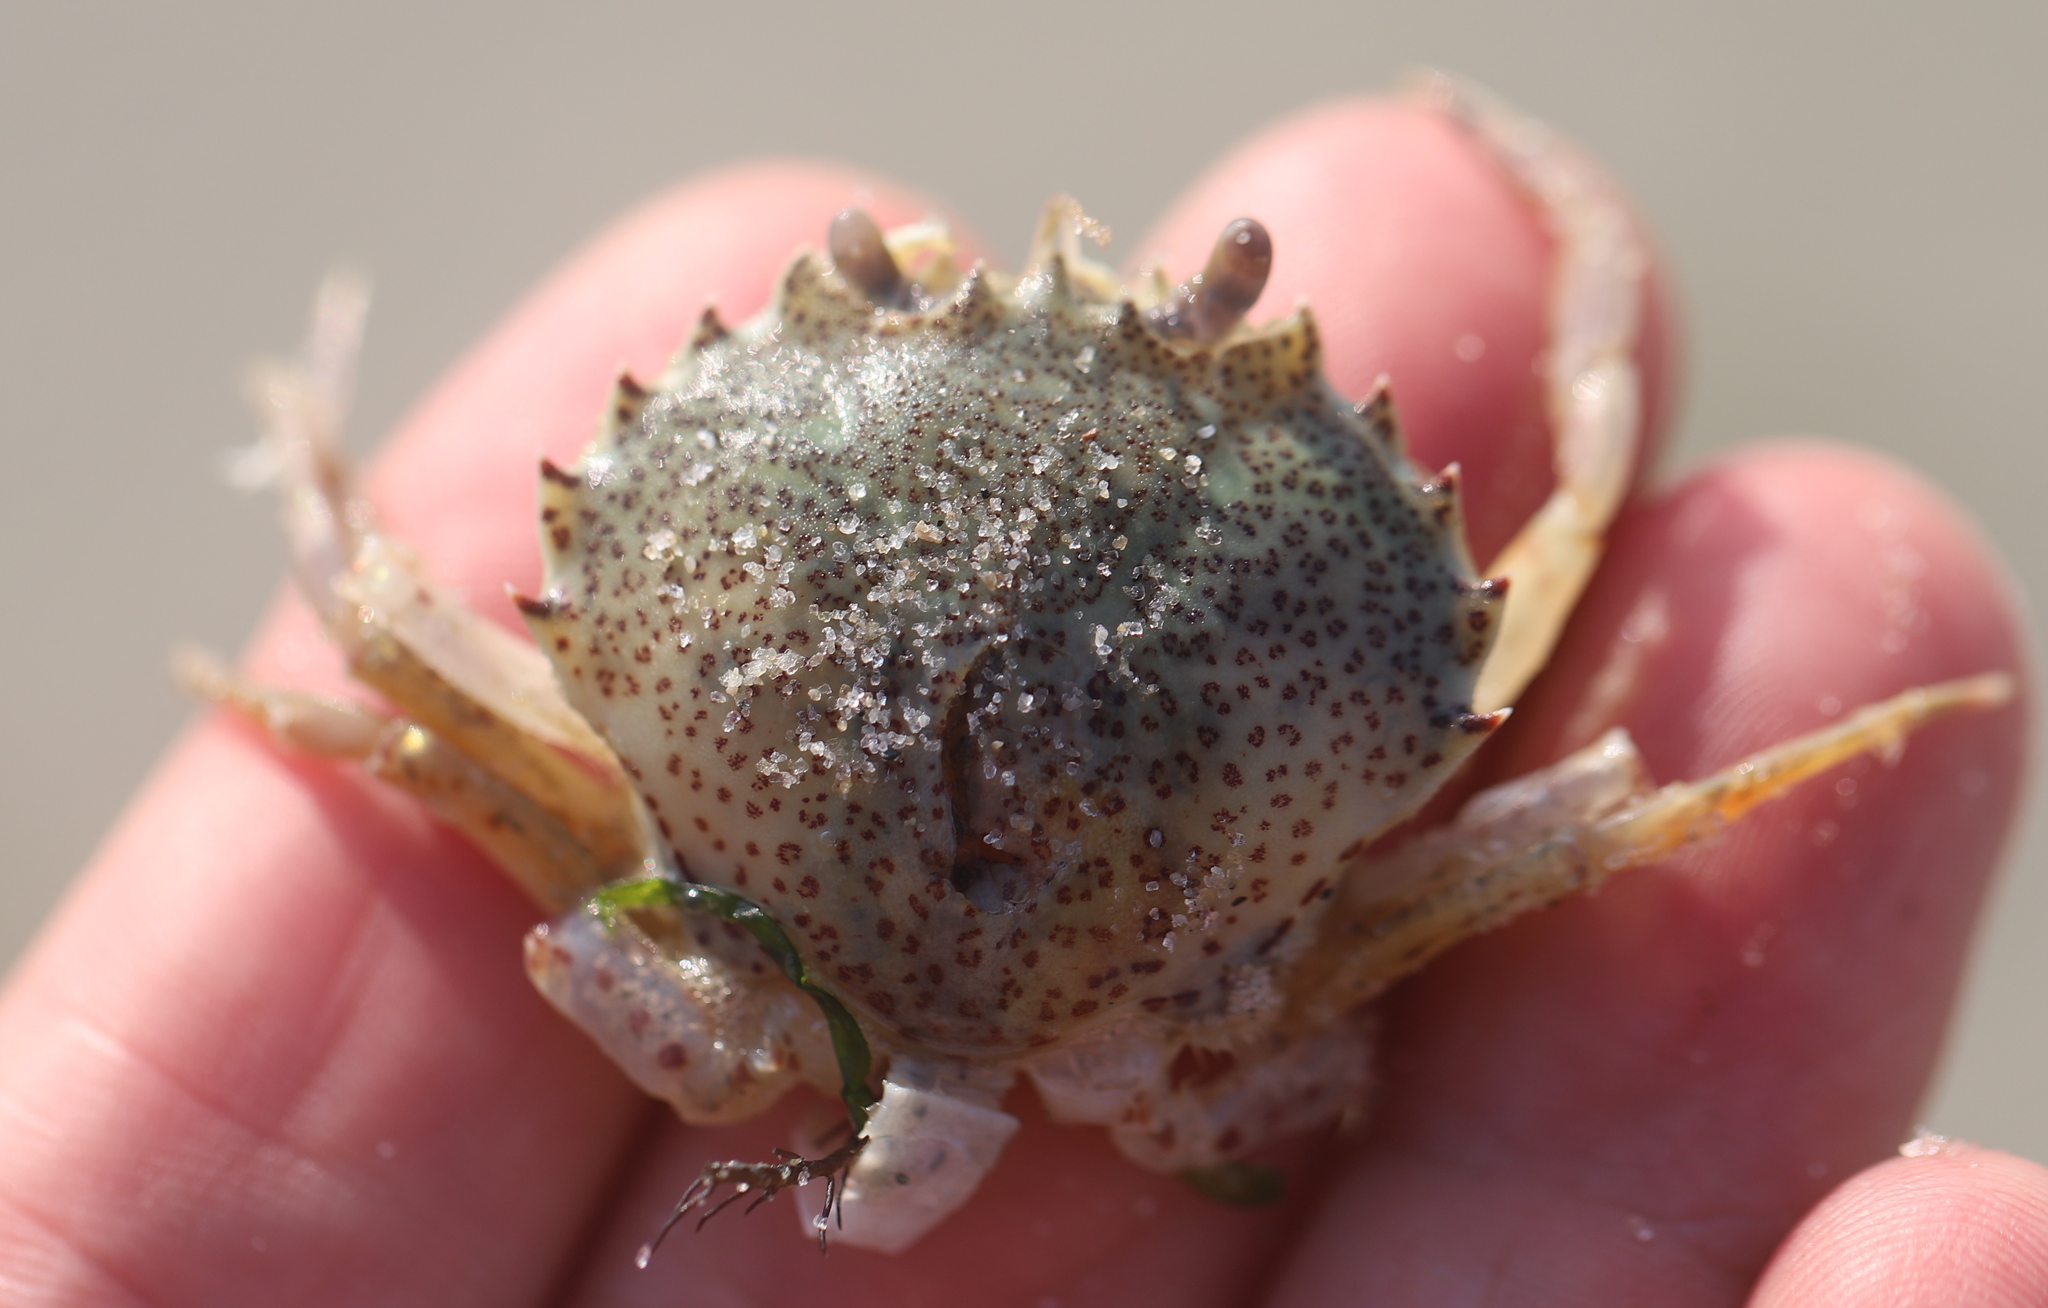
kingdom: Animalia
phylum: Arthropoda
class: Malacostraca
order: Decapoda
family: Ovalipidae
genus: Ovalipes
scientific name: Ovalipes ocellatus
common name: Lady crab
